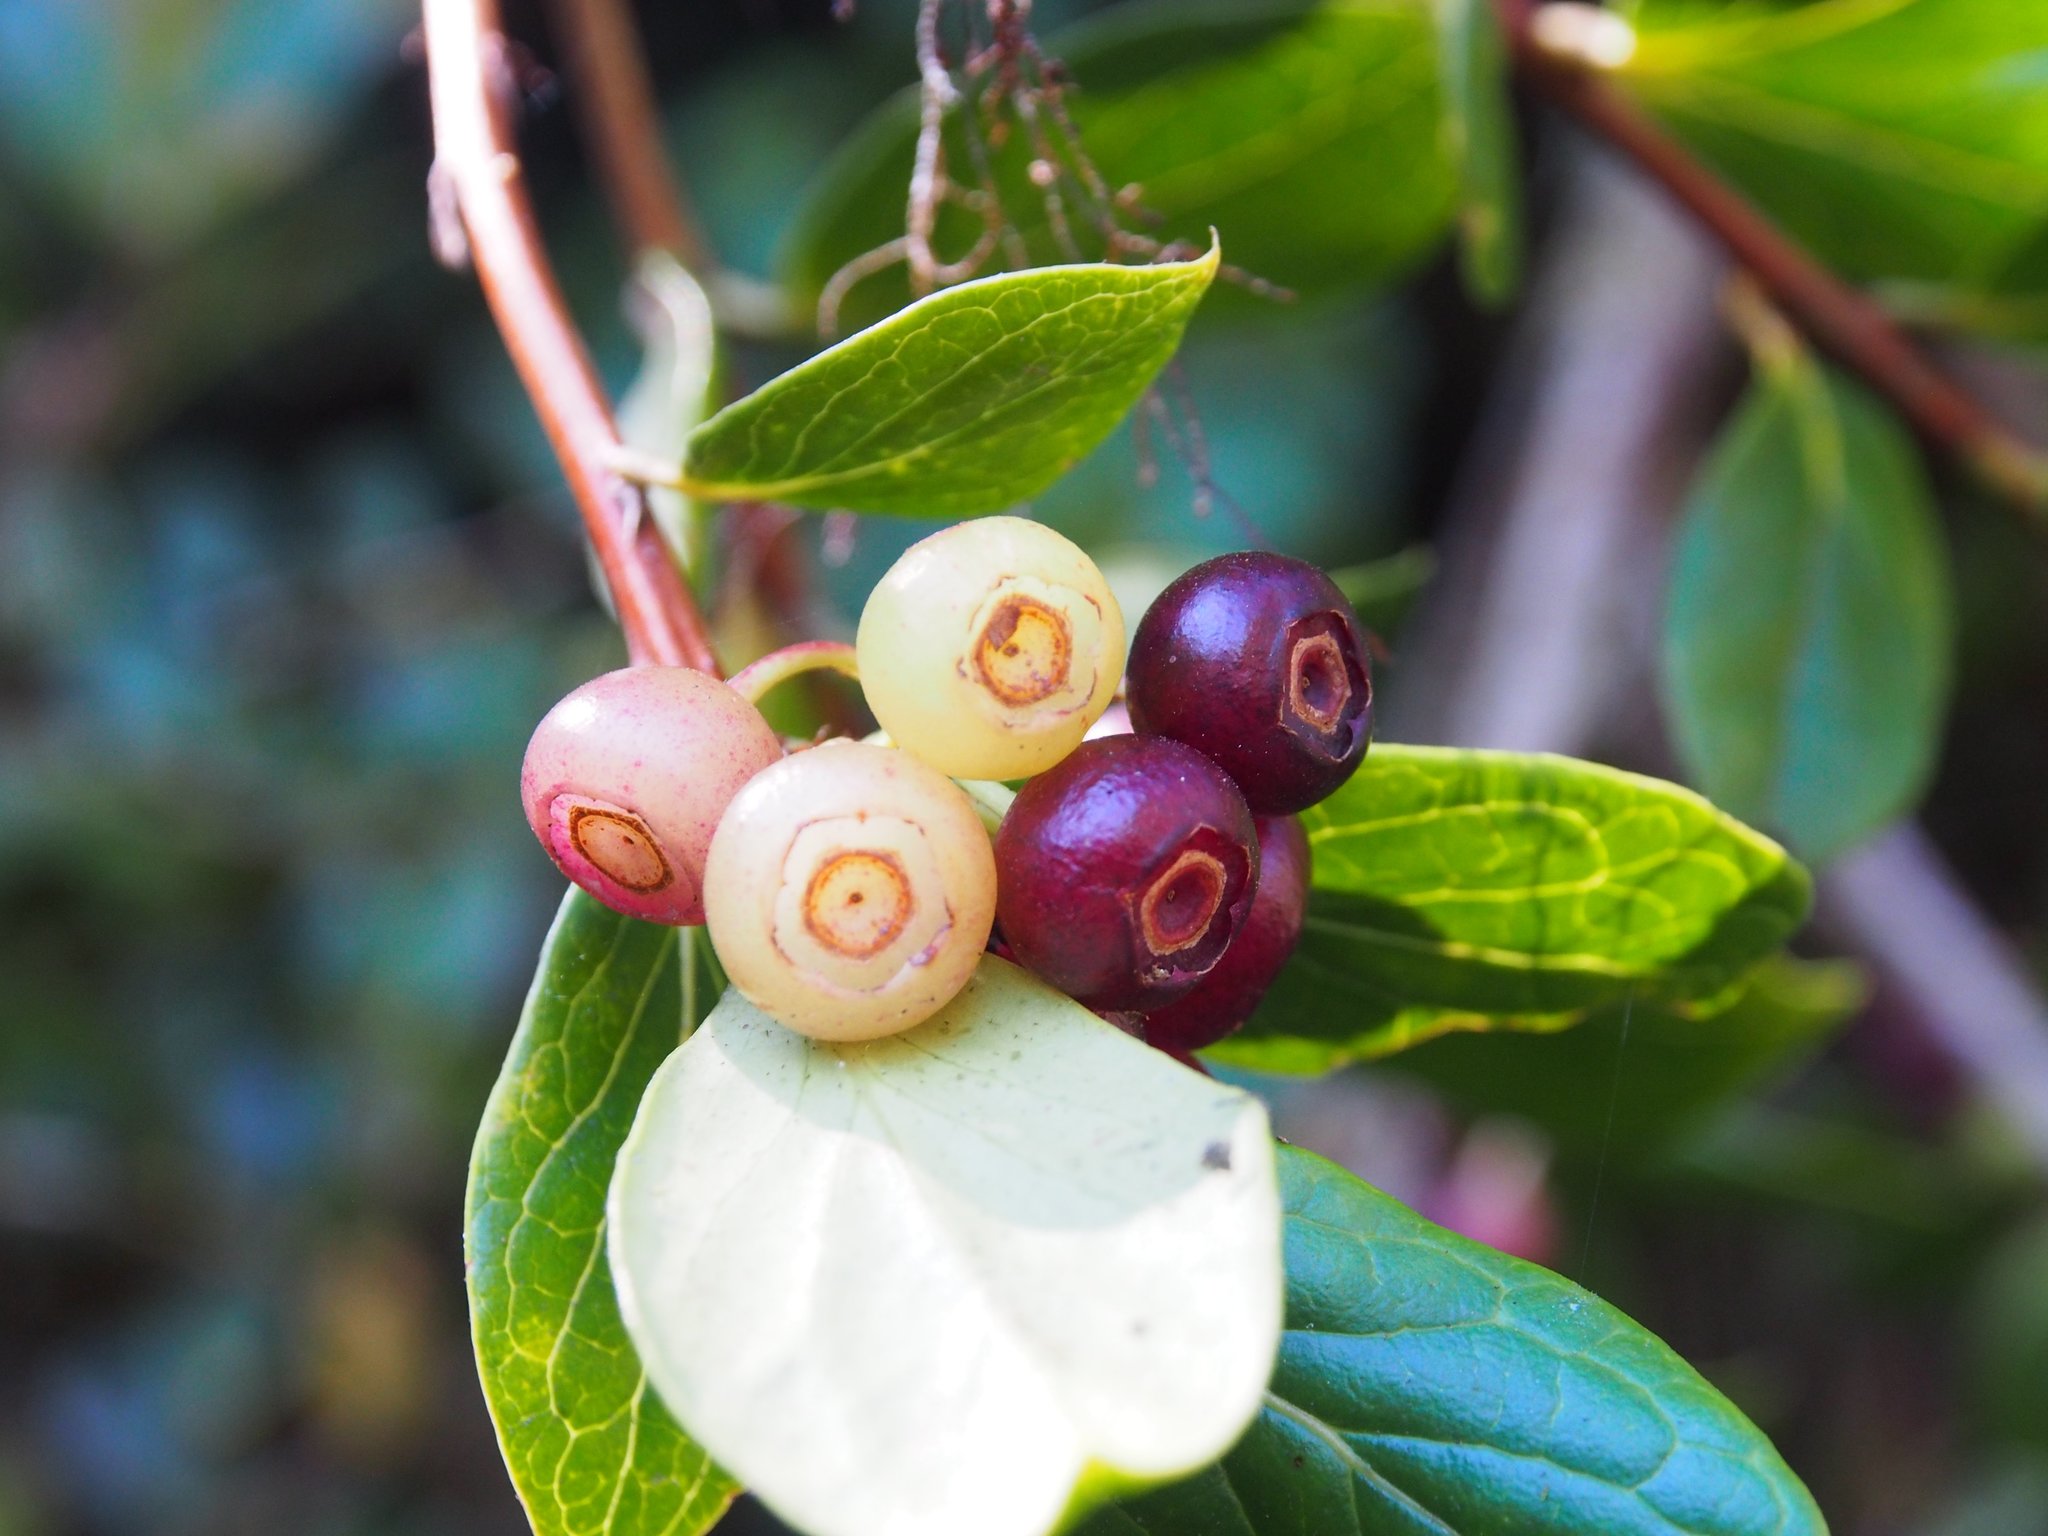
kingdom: Plantae
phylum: Tracheophyta
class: Magnoliopsida
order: Ericales
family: Ericaceae
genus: Symphysia
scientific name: Symphysia poasana
